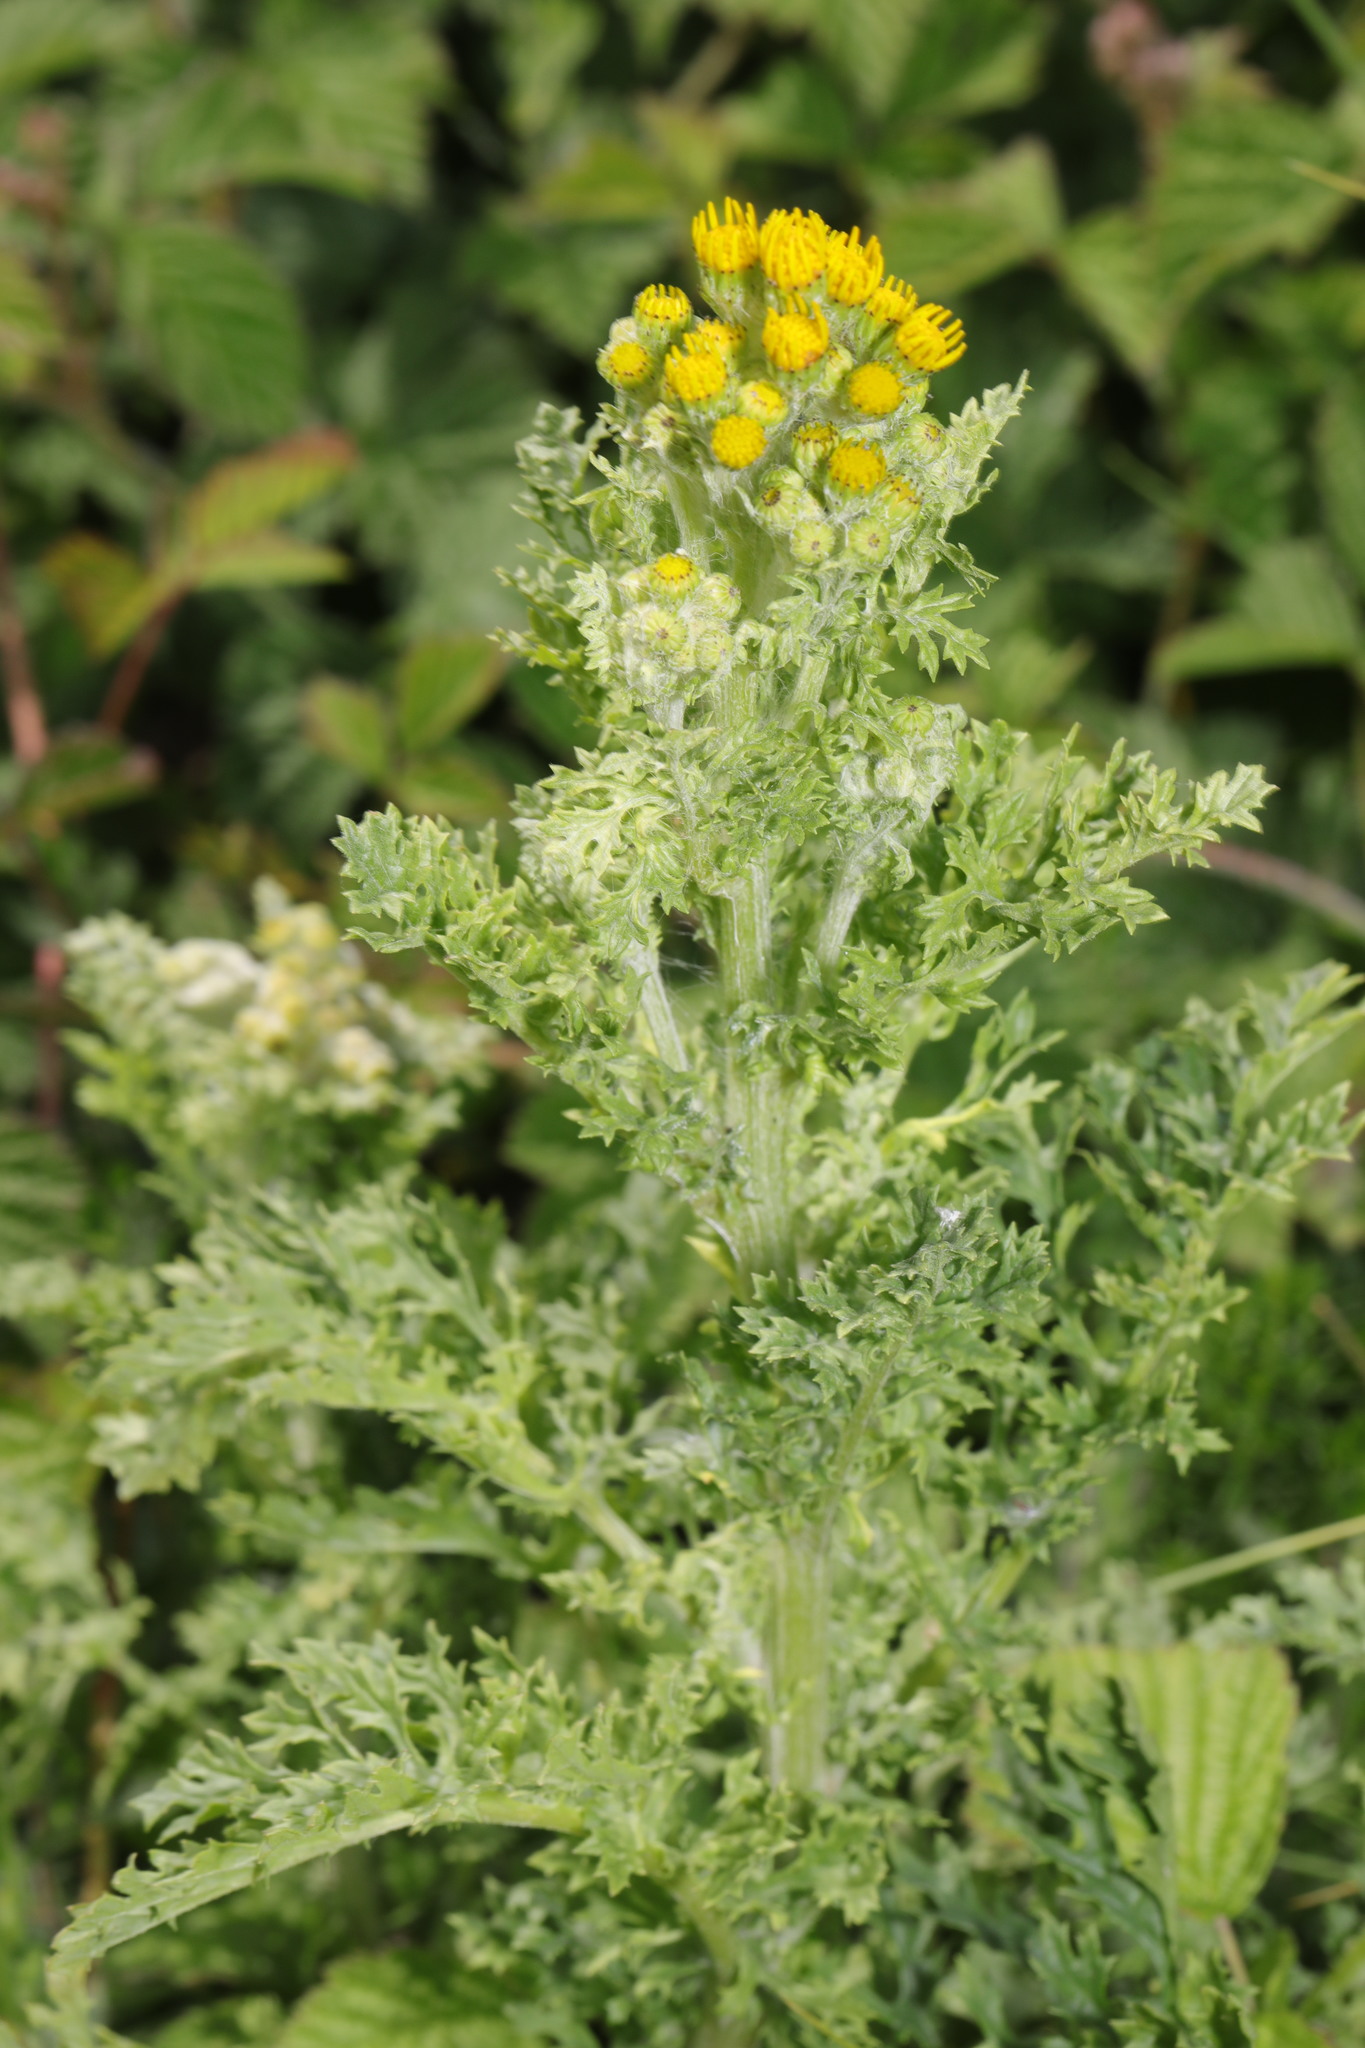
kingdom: Plantae
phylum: Tracheophyta
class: Magnoliopsida
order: Asterales
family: Asteraceae
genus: Jacobaea
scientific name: Jacobaea vulgaris
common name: Stinking willie
